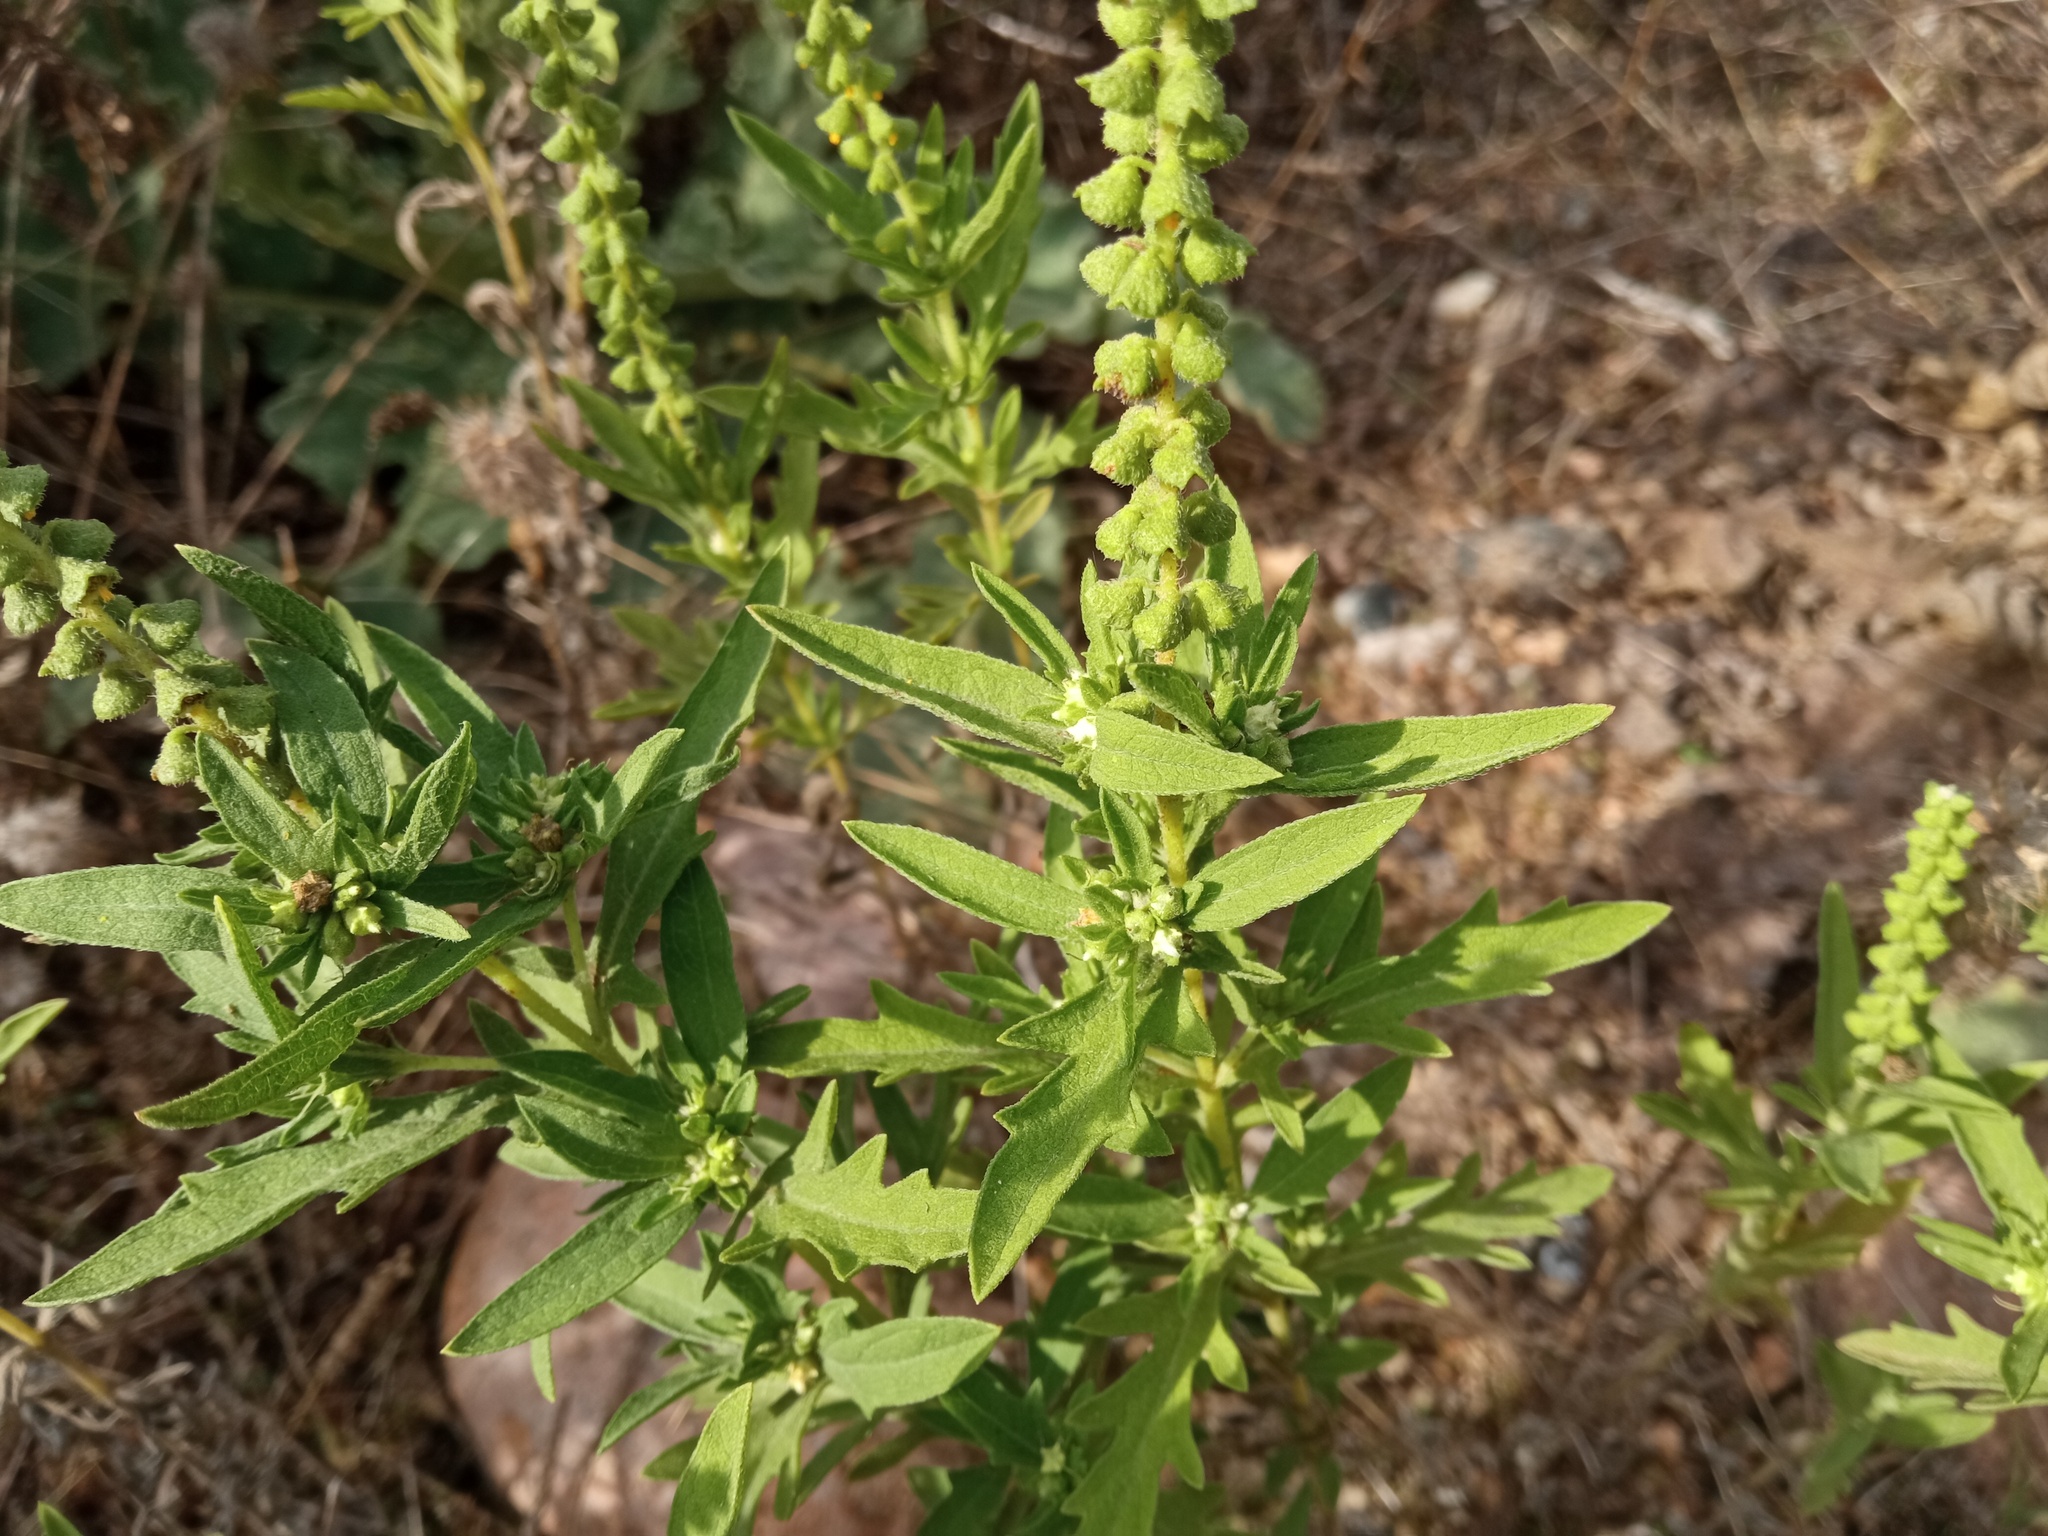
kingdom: Plantae
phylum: Tracheophyta
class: Magnoliopsida
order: Asterales
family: Asteraceae
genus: Ambrosia
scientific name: Ambrosia psilostachya
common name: Perennial ragweed
